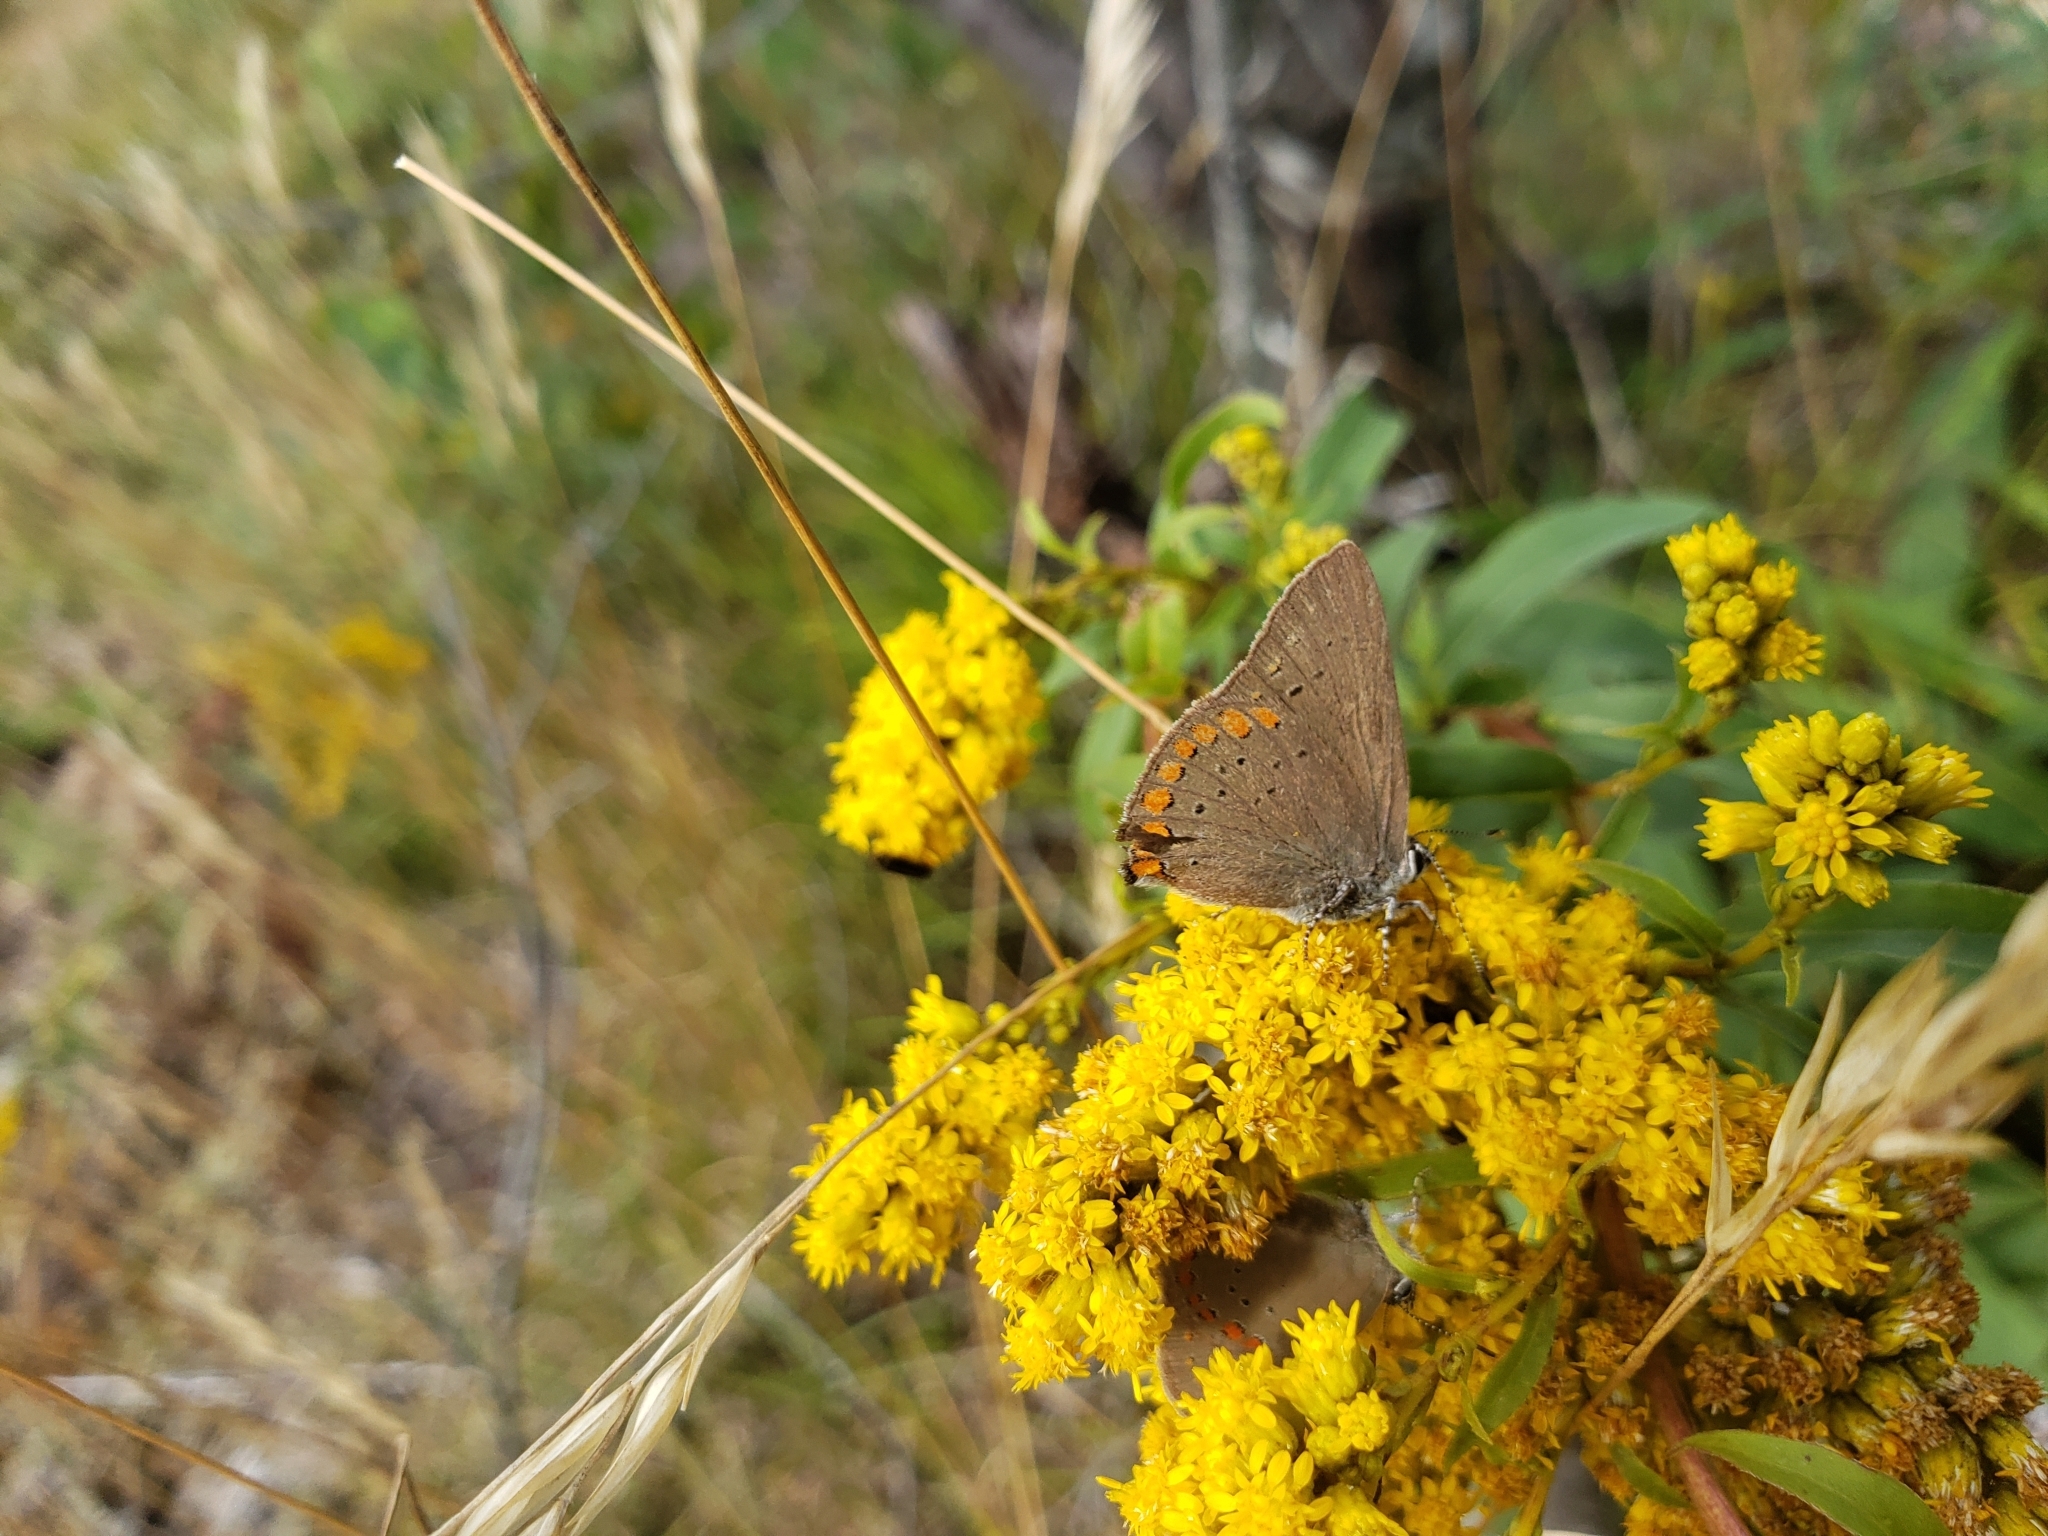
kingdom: Animalia
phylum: Arthropoda
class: Insecta
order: Lepidoptera
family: Lycaenidae
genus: Harkenclenus
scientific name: Harkenclenus titus
